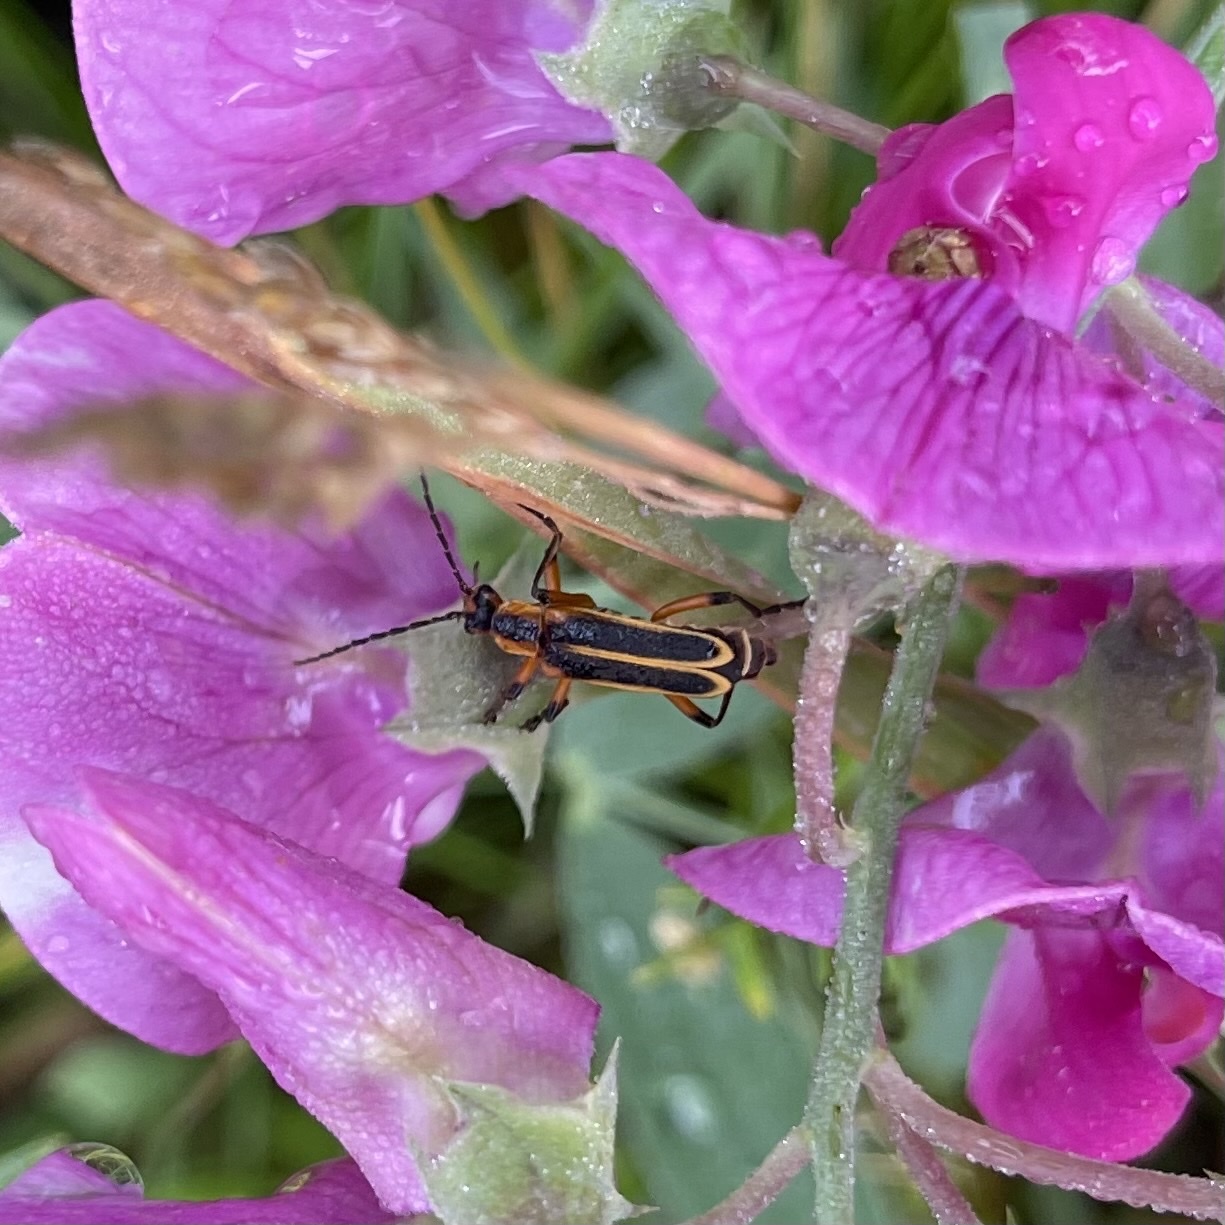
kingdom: Animalia
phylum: Arthropoda
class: Insecta
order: Coleoptera
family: Cantharidae
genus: Chauliognathus
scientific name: Chauliognathus marginatus
